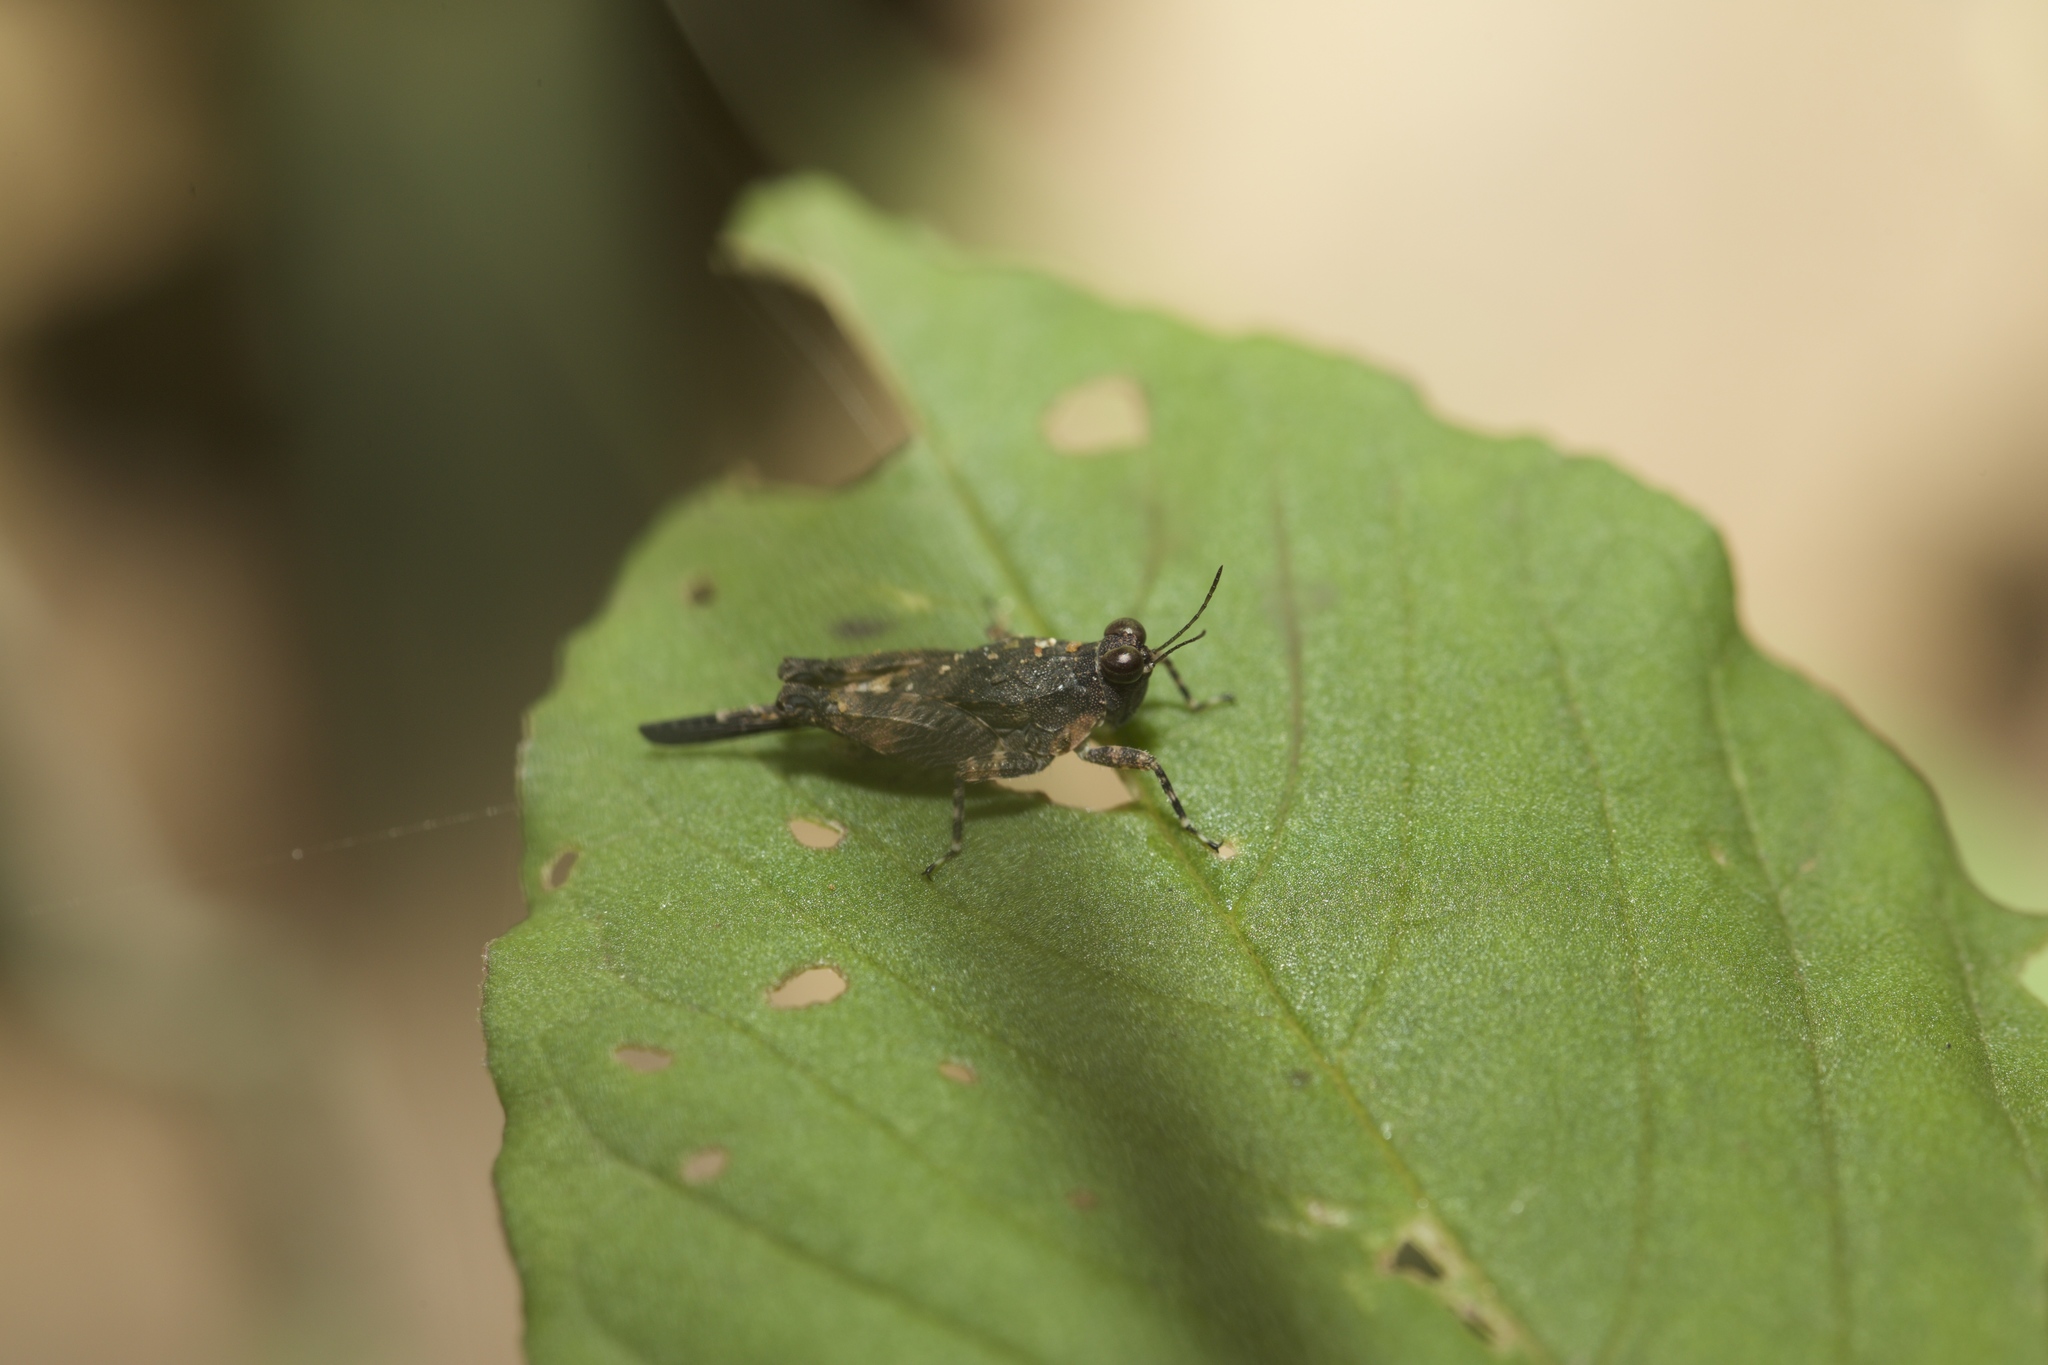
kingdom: Animalia
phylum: Arthropoda
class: Insecta
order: Orthoptera
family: Tetrigidae
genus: Paratettix
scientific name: Paratettix aztecus
